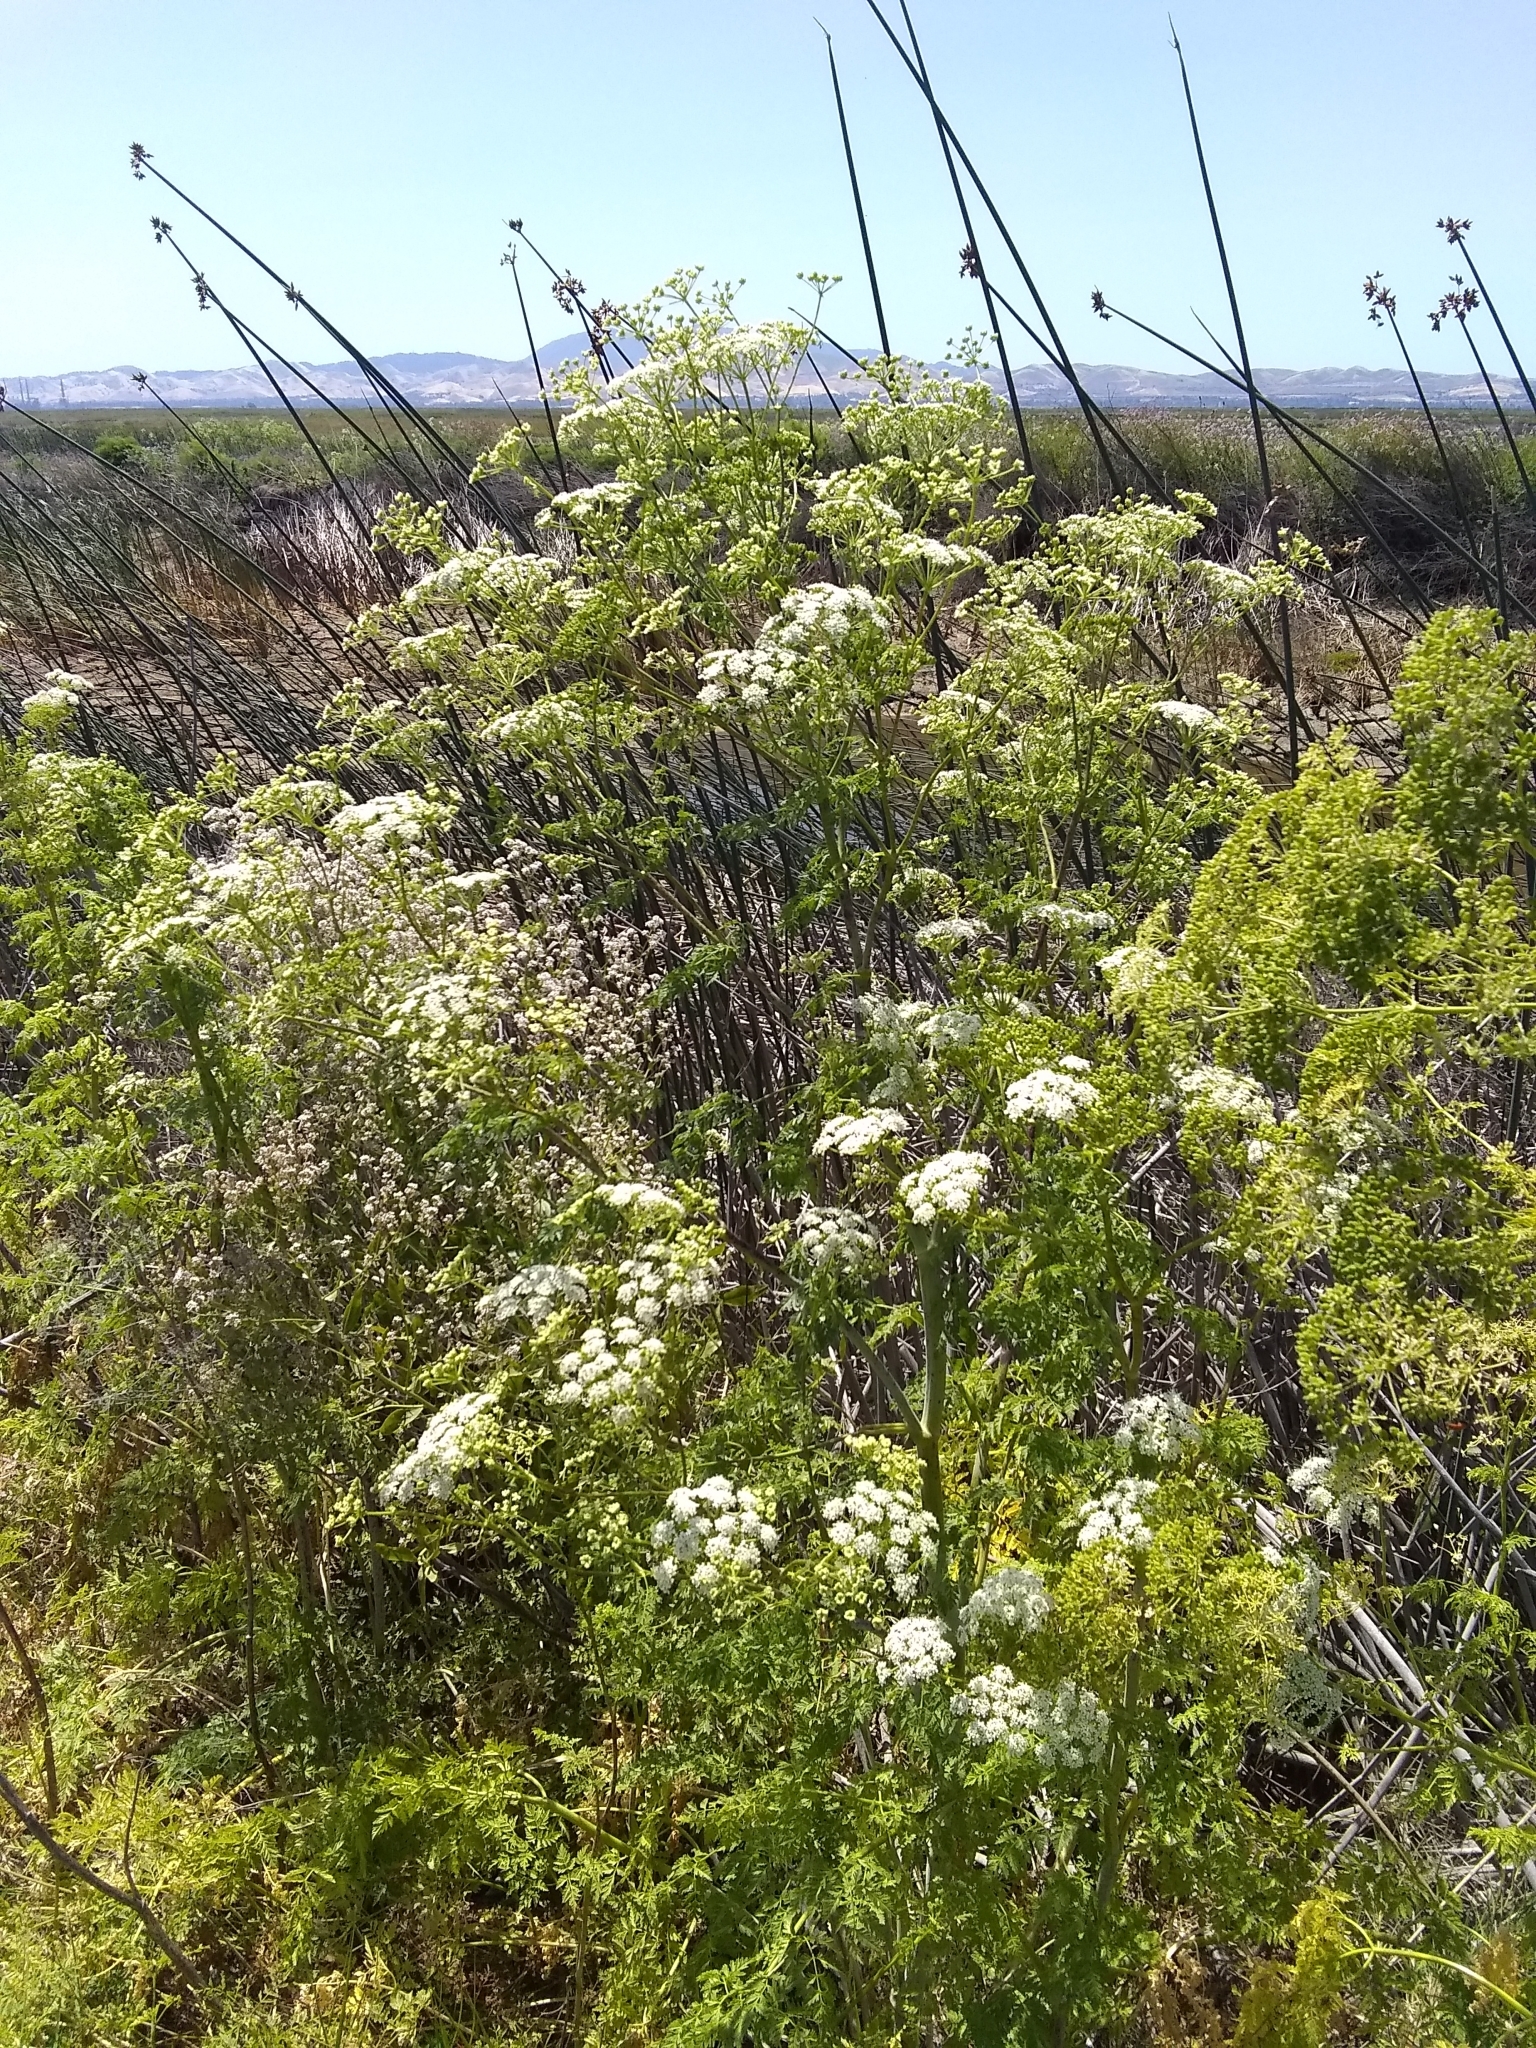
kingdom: Plantae
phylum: Tracheophyta
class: Magnoliopsida
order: Apiales
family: Apiaceae
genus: Conium
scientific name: Conium maculatum
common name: Hemlock
